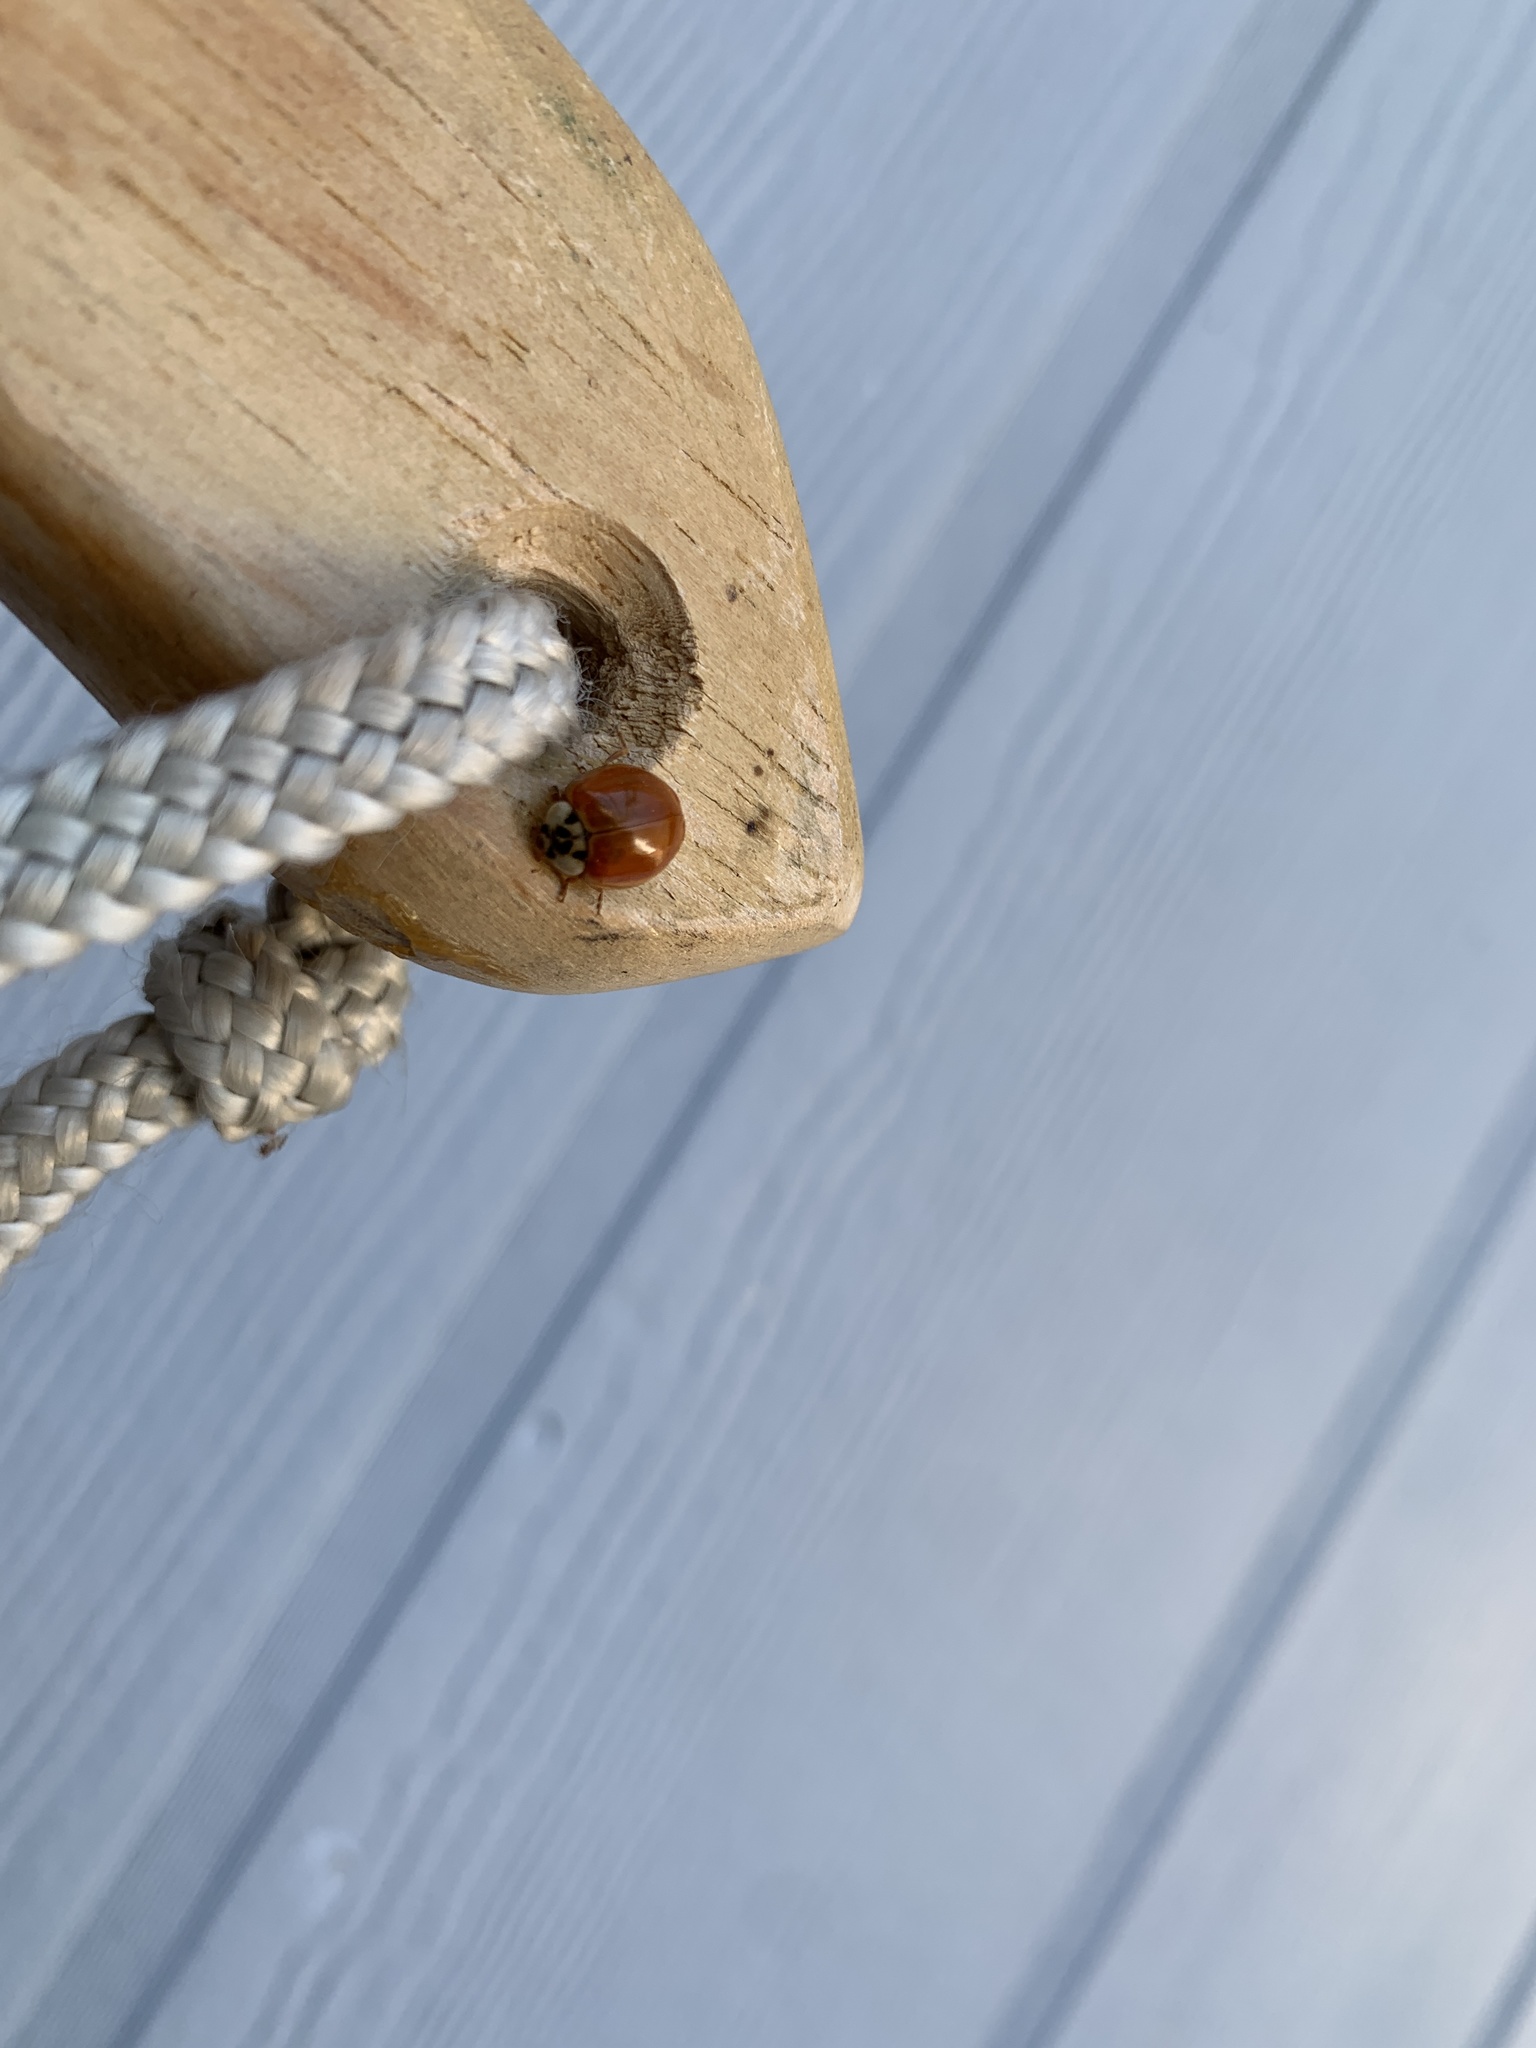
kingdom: Animalia
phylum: Arthropoda
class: Insecta
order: Coleoptera
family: Coccinellidae
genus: Harmonia
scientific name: Harmonia axyridis
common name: Harlequin ladybird
